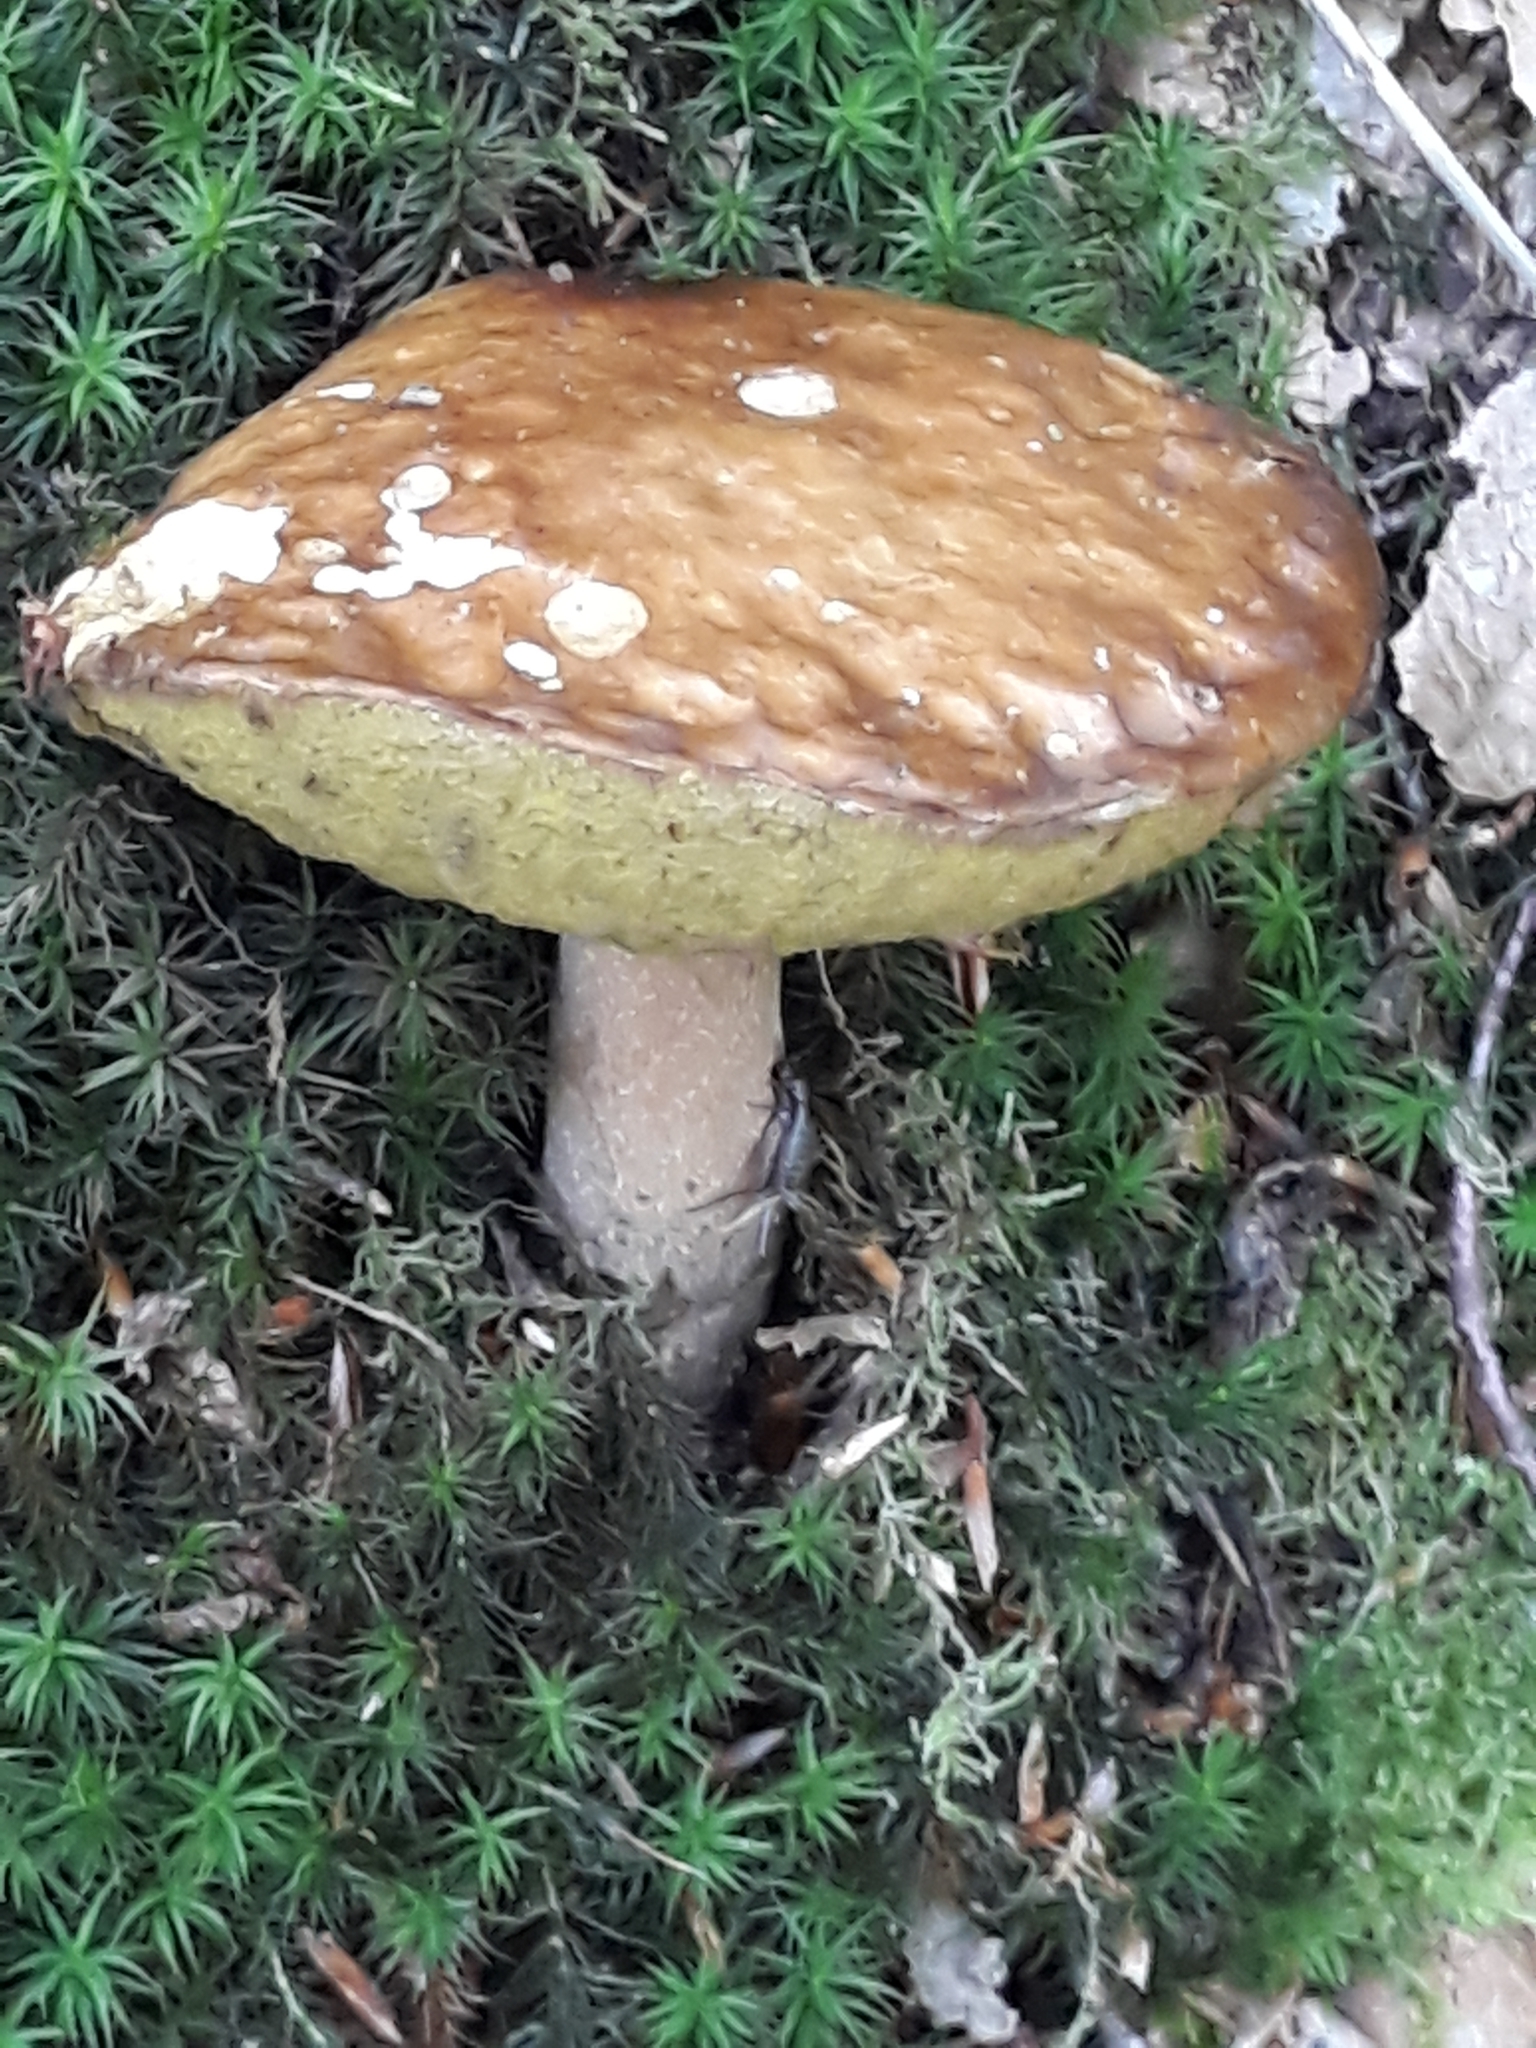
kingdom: Fungi
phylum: Basidiomycota
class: Agaricomycetes
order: Boletales
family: Boletaceae
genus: Boletus
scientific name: Boletus edulis
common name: Cep
